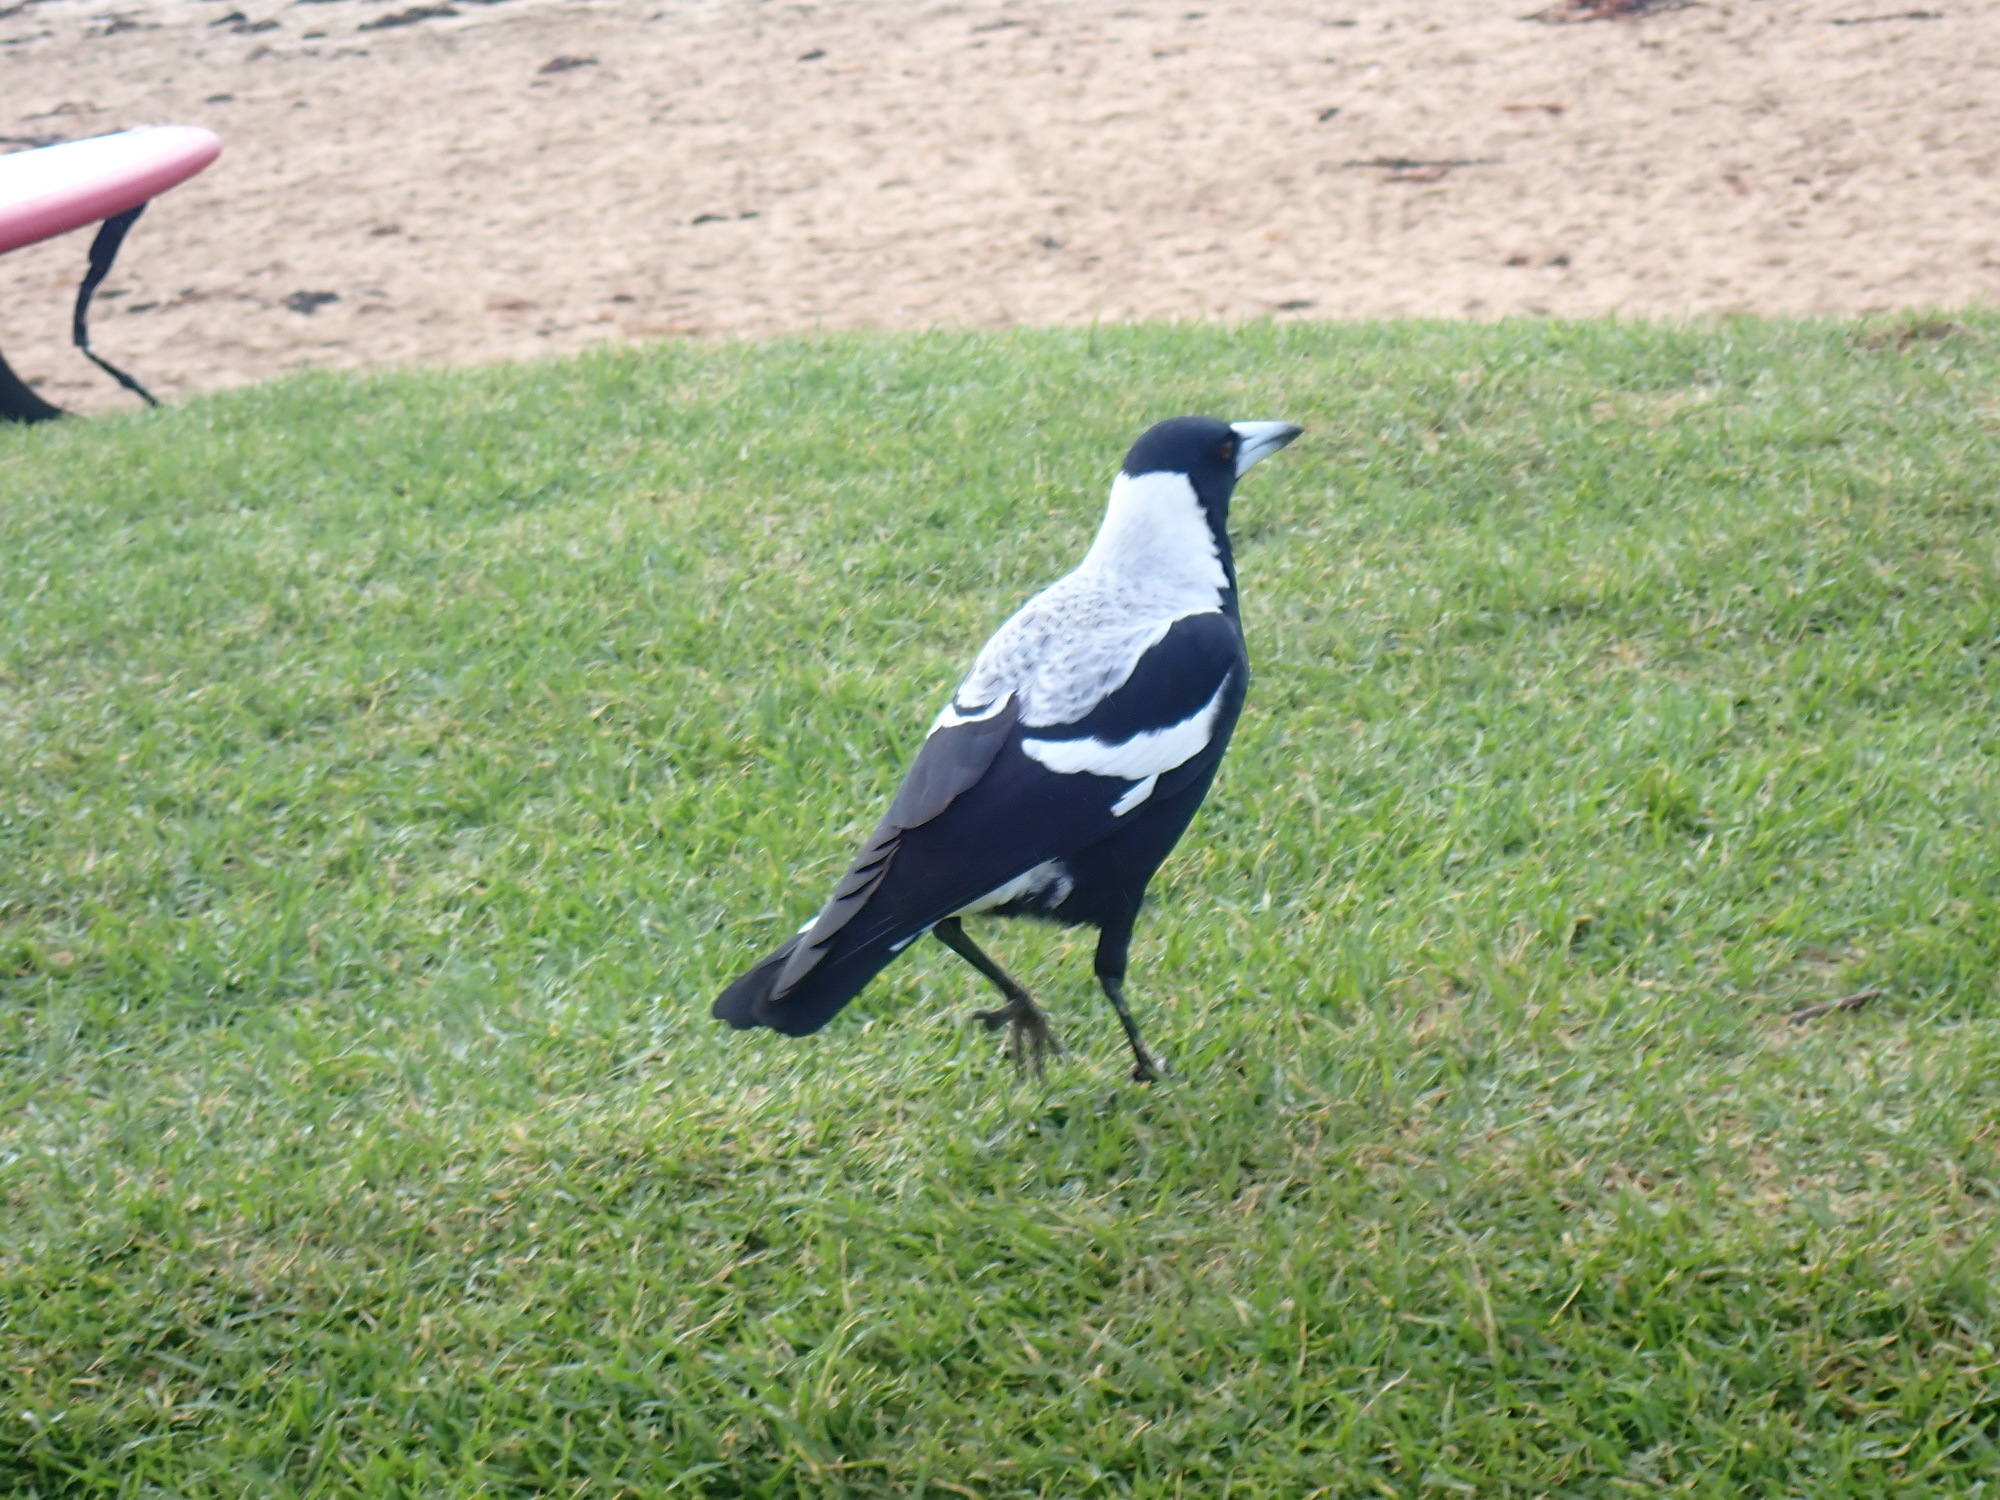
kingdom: Animalia
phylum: Chordata
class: Aves
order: Passeriformes
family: Cracticidae
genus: Gymnorhina
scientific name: Gymnorhina tibicen
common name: Australian magpie
